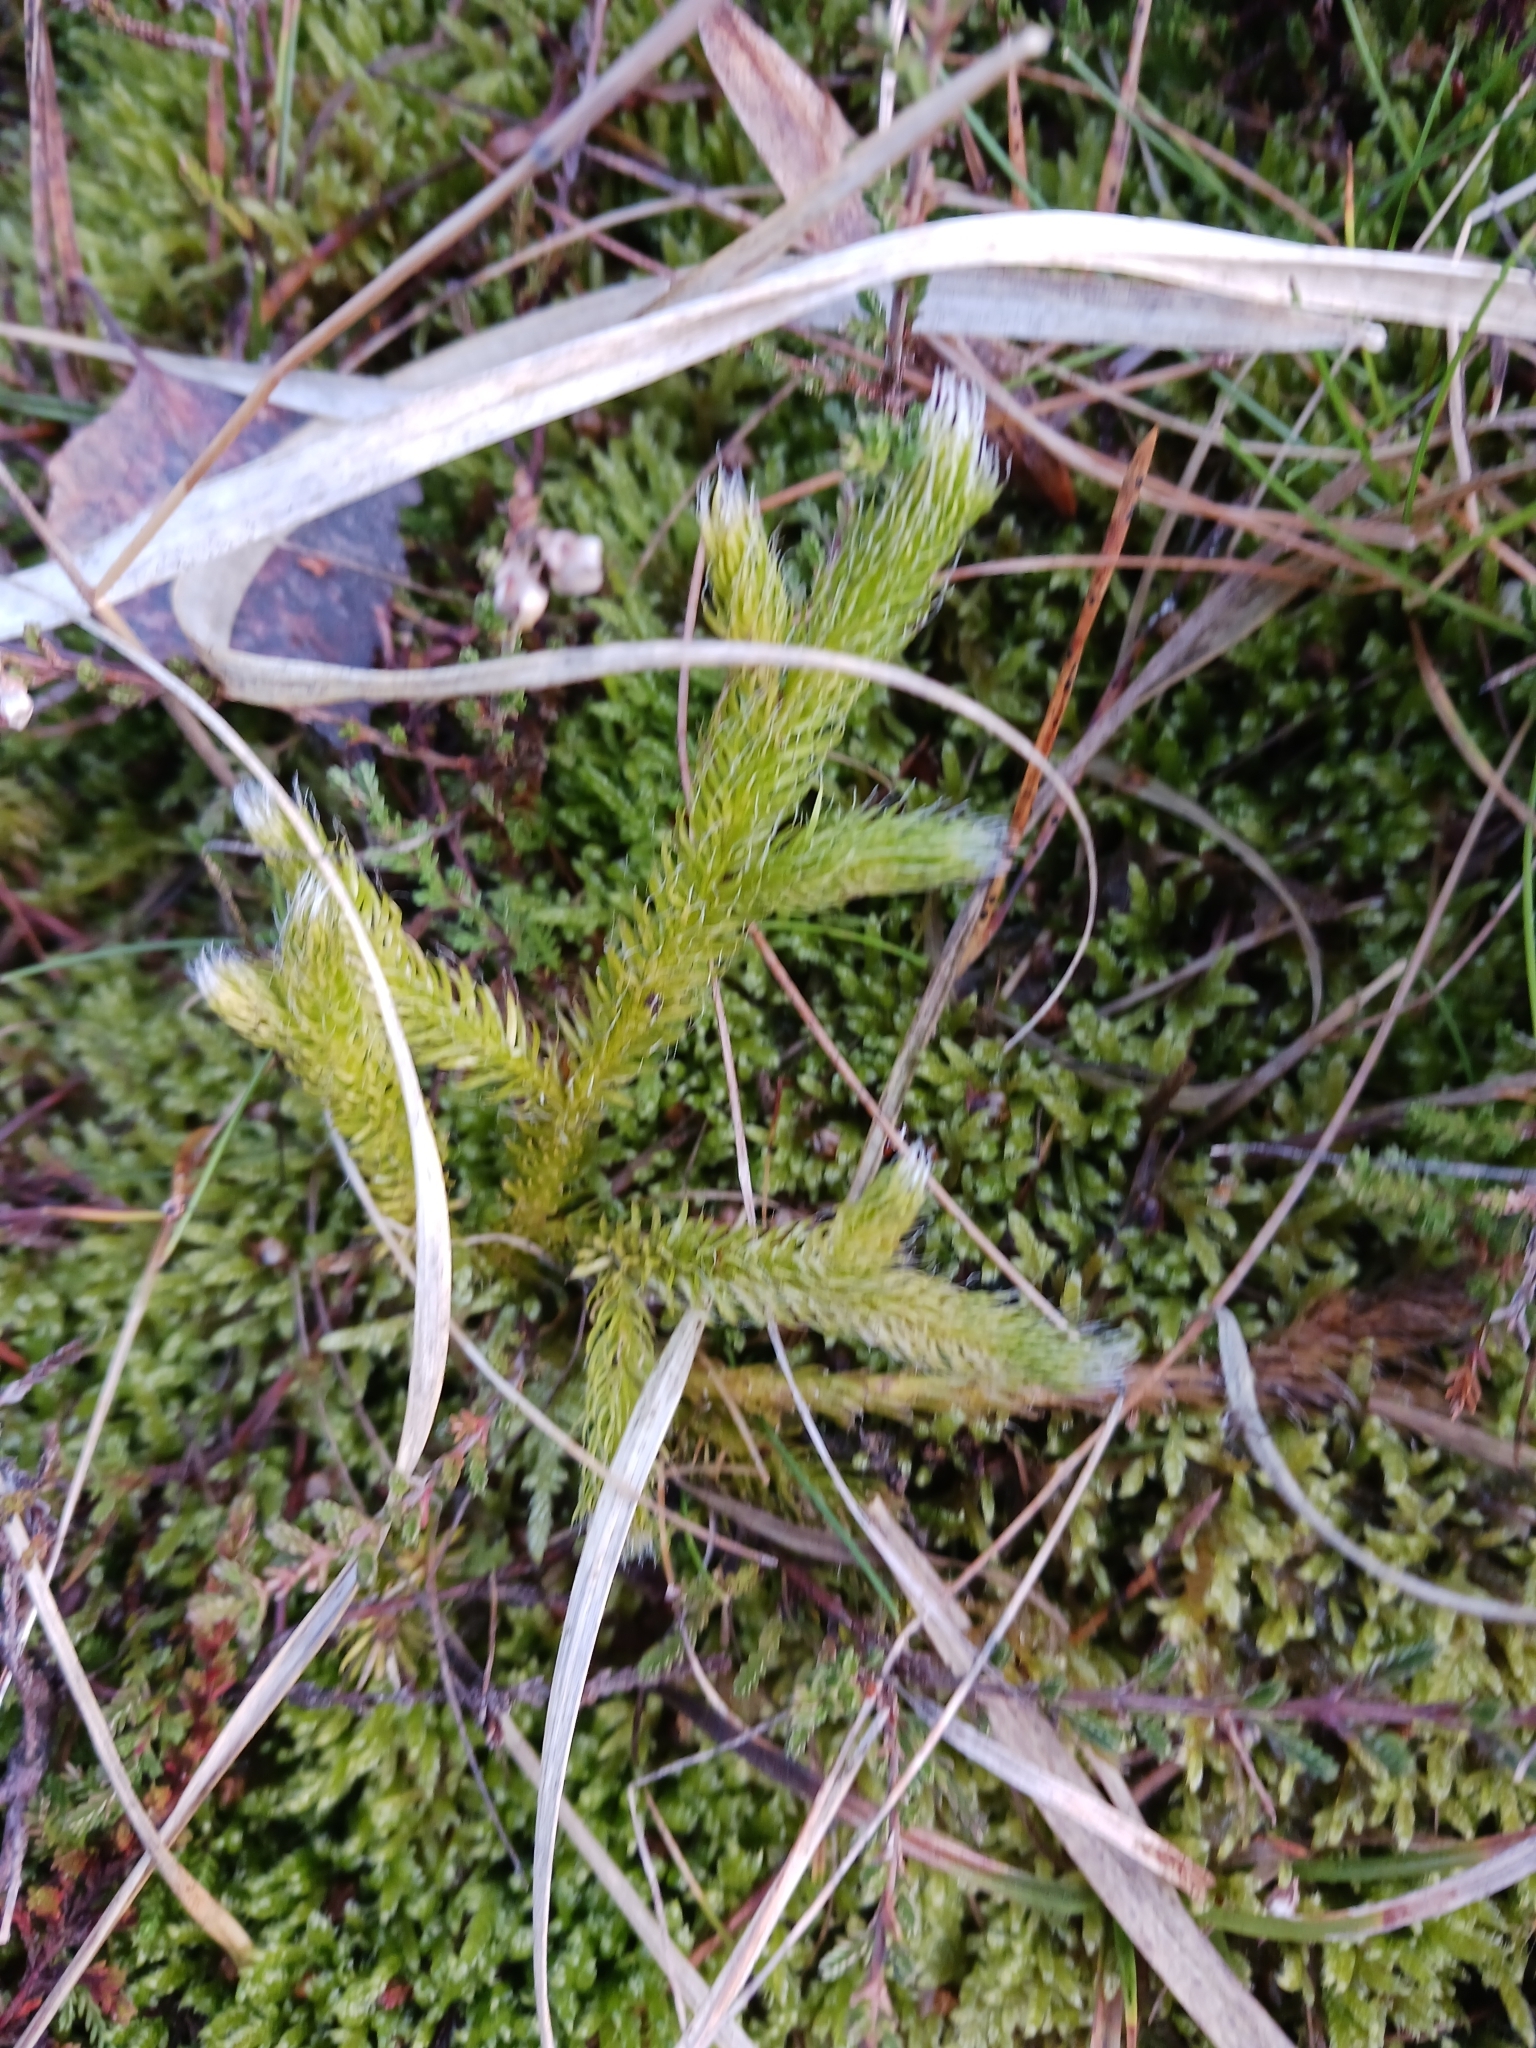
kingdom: Plantae
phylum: Tracheophyta
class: Lycopodiopsida
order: Lycopodiales
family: Lycopodiaceae
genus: Lycopodium
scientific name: Lycopodium clavatum
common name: Stag's-horn clubmoss
